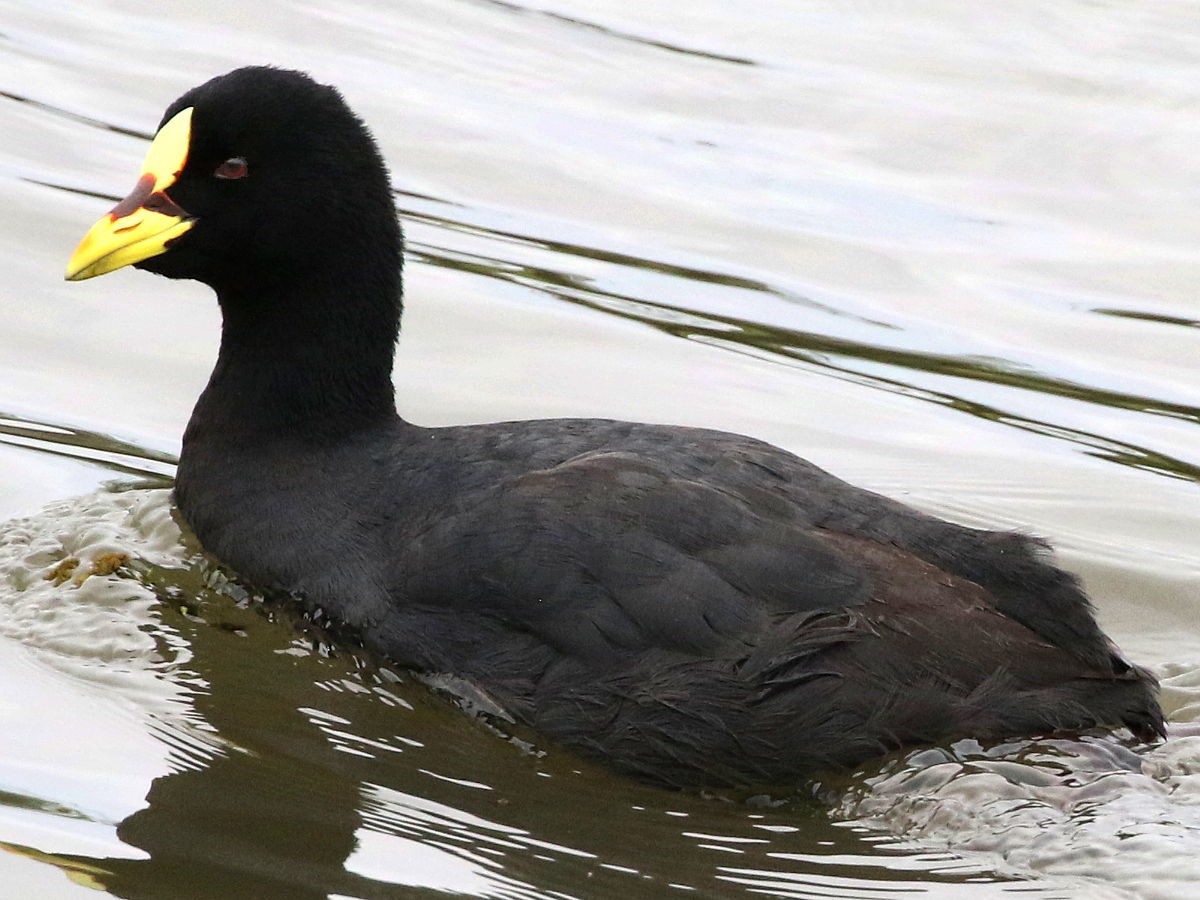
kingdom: Animalia
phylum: Chordata
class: Aves
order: Gruiformes
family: Rallidae
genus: Fulica
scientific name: Fulica armillata
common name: Red-gartered coot
